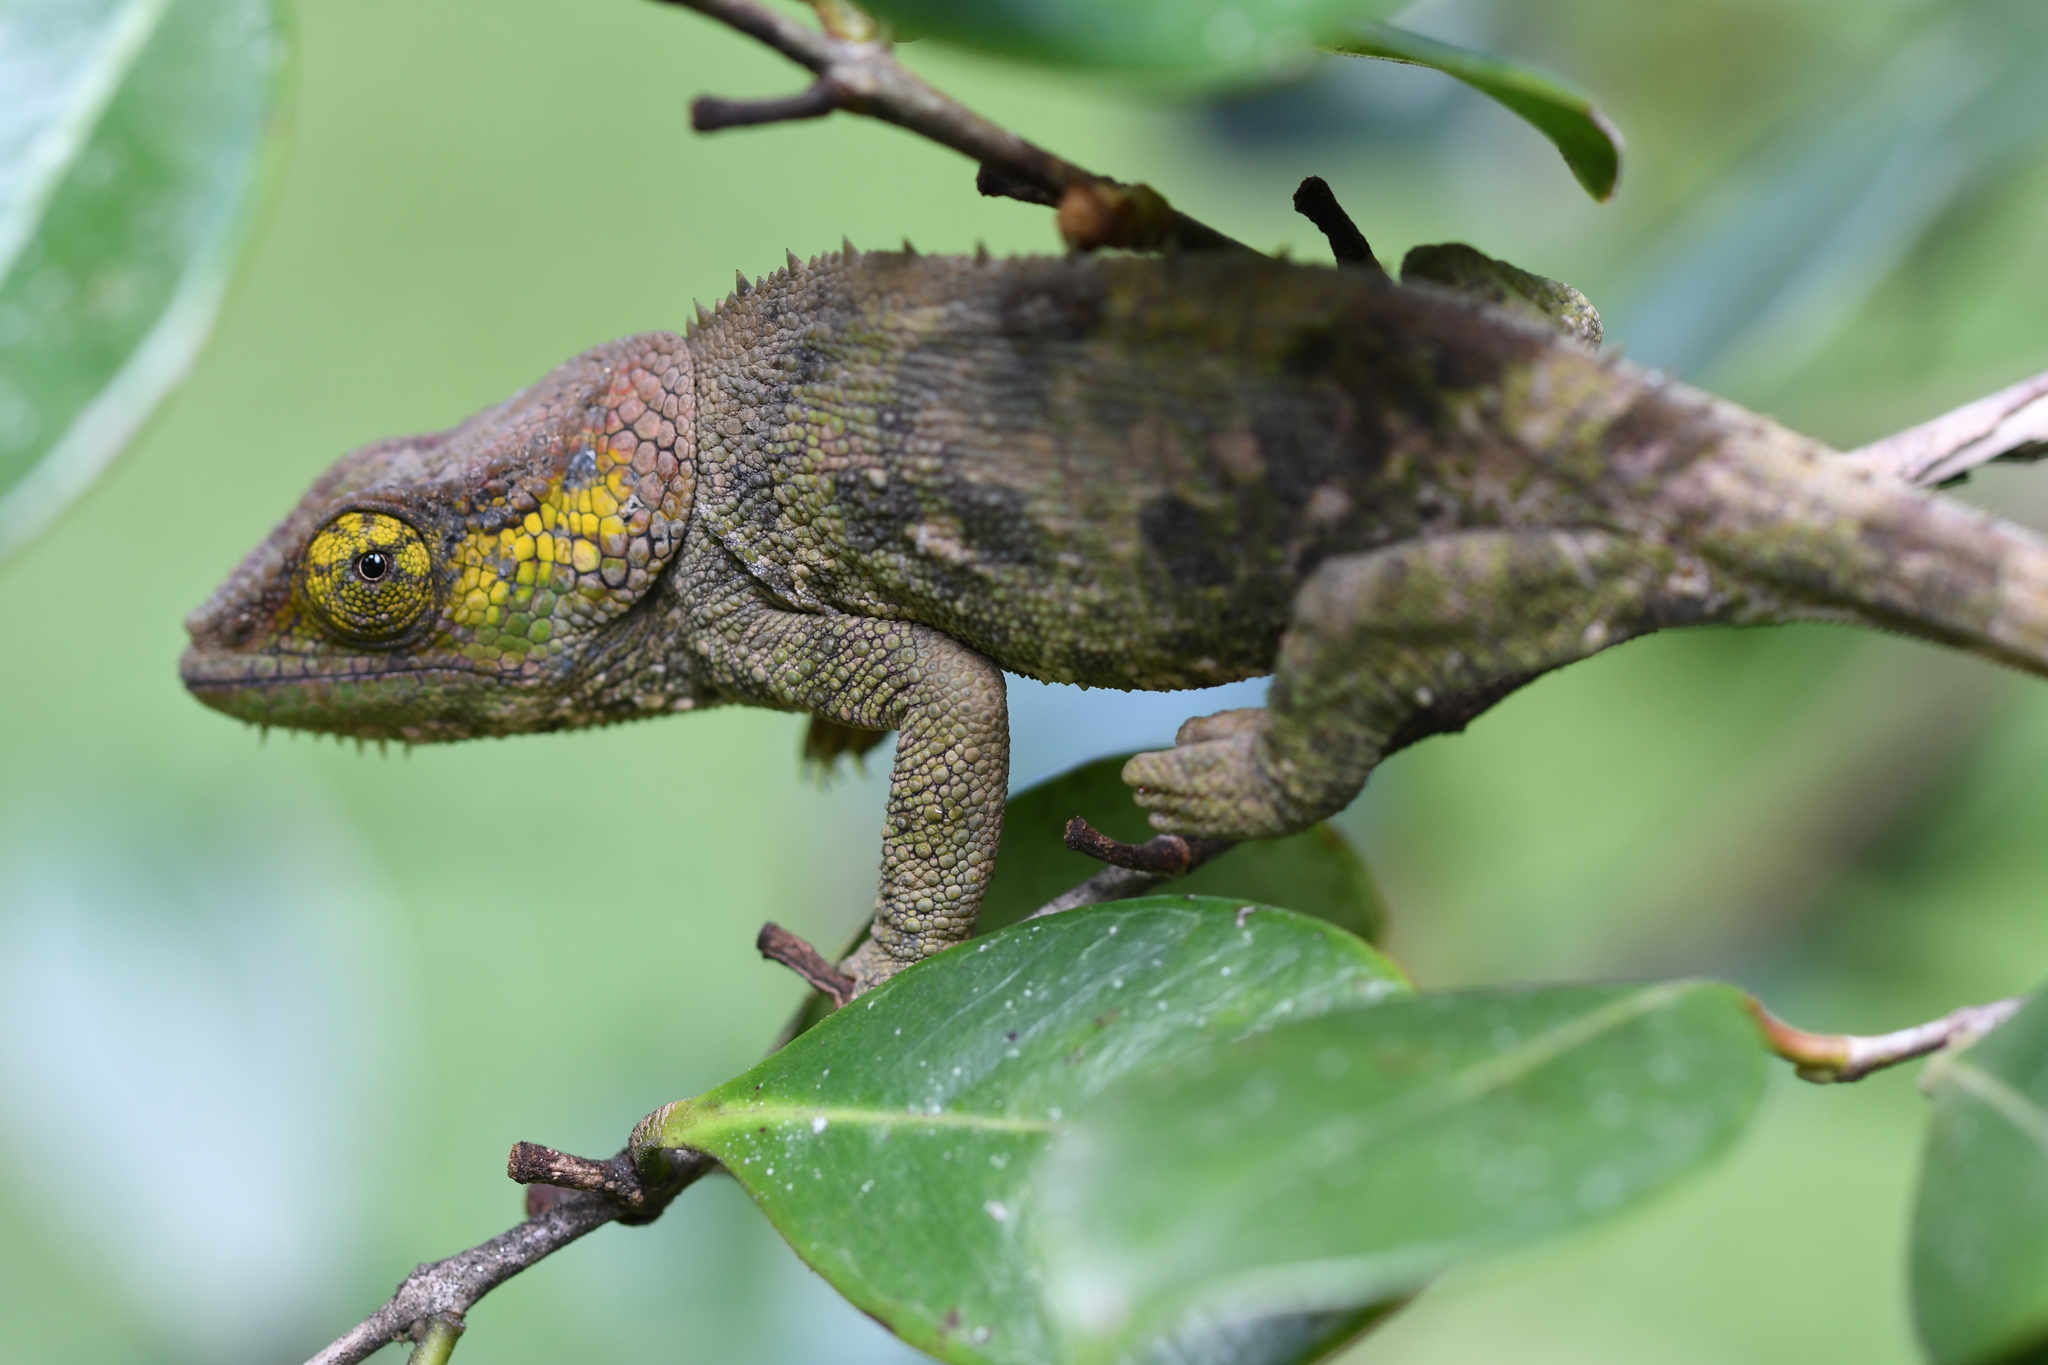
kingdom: Animalia
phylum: Chordata
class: Squamata
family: Chamaeleonidae
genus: Calumma
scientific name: Calumma crypticum
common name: Cryptic chameleon
